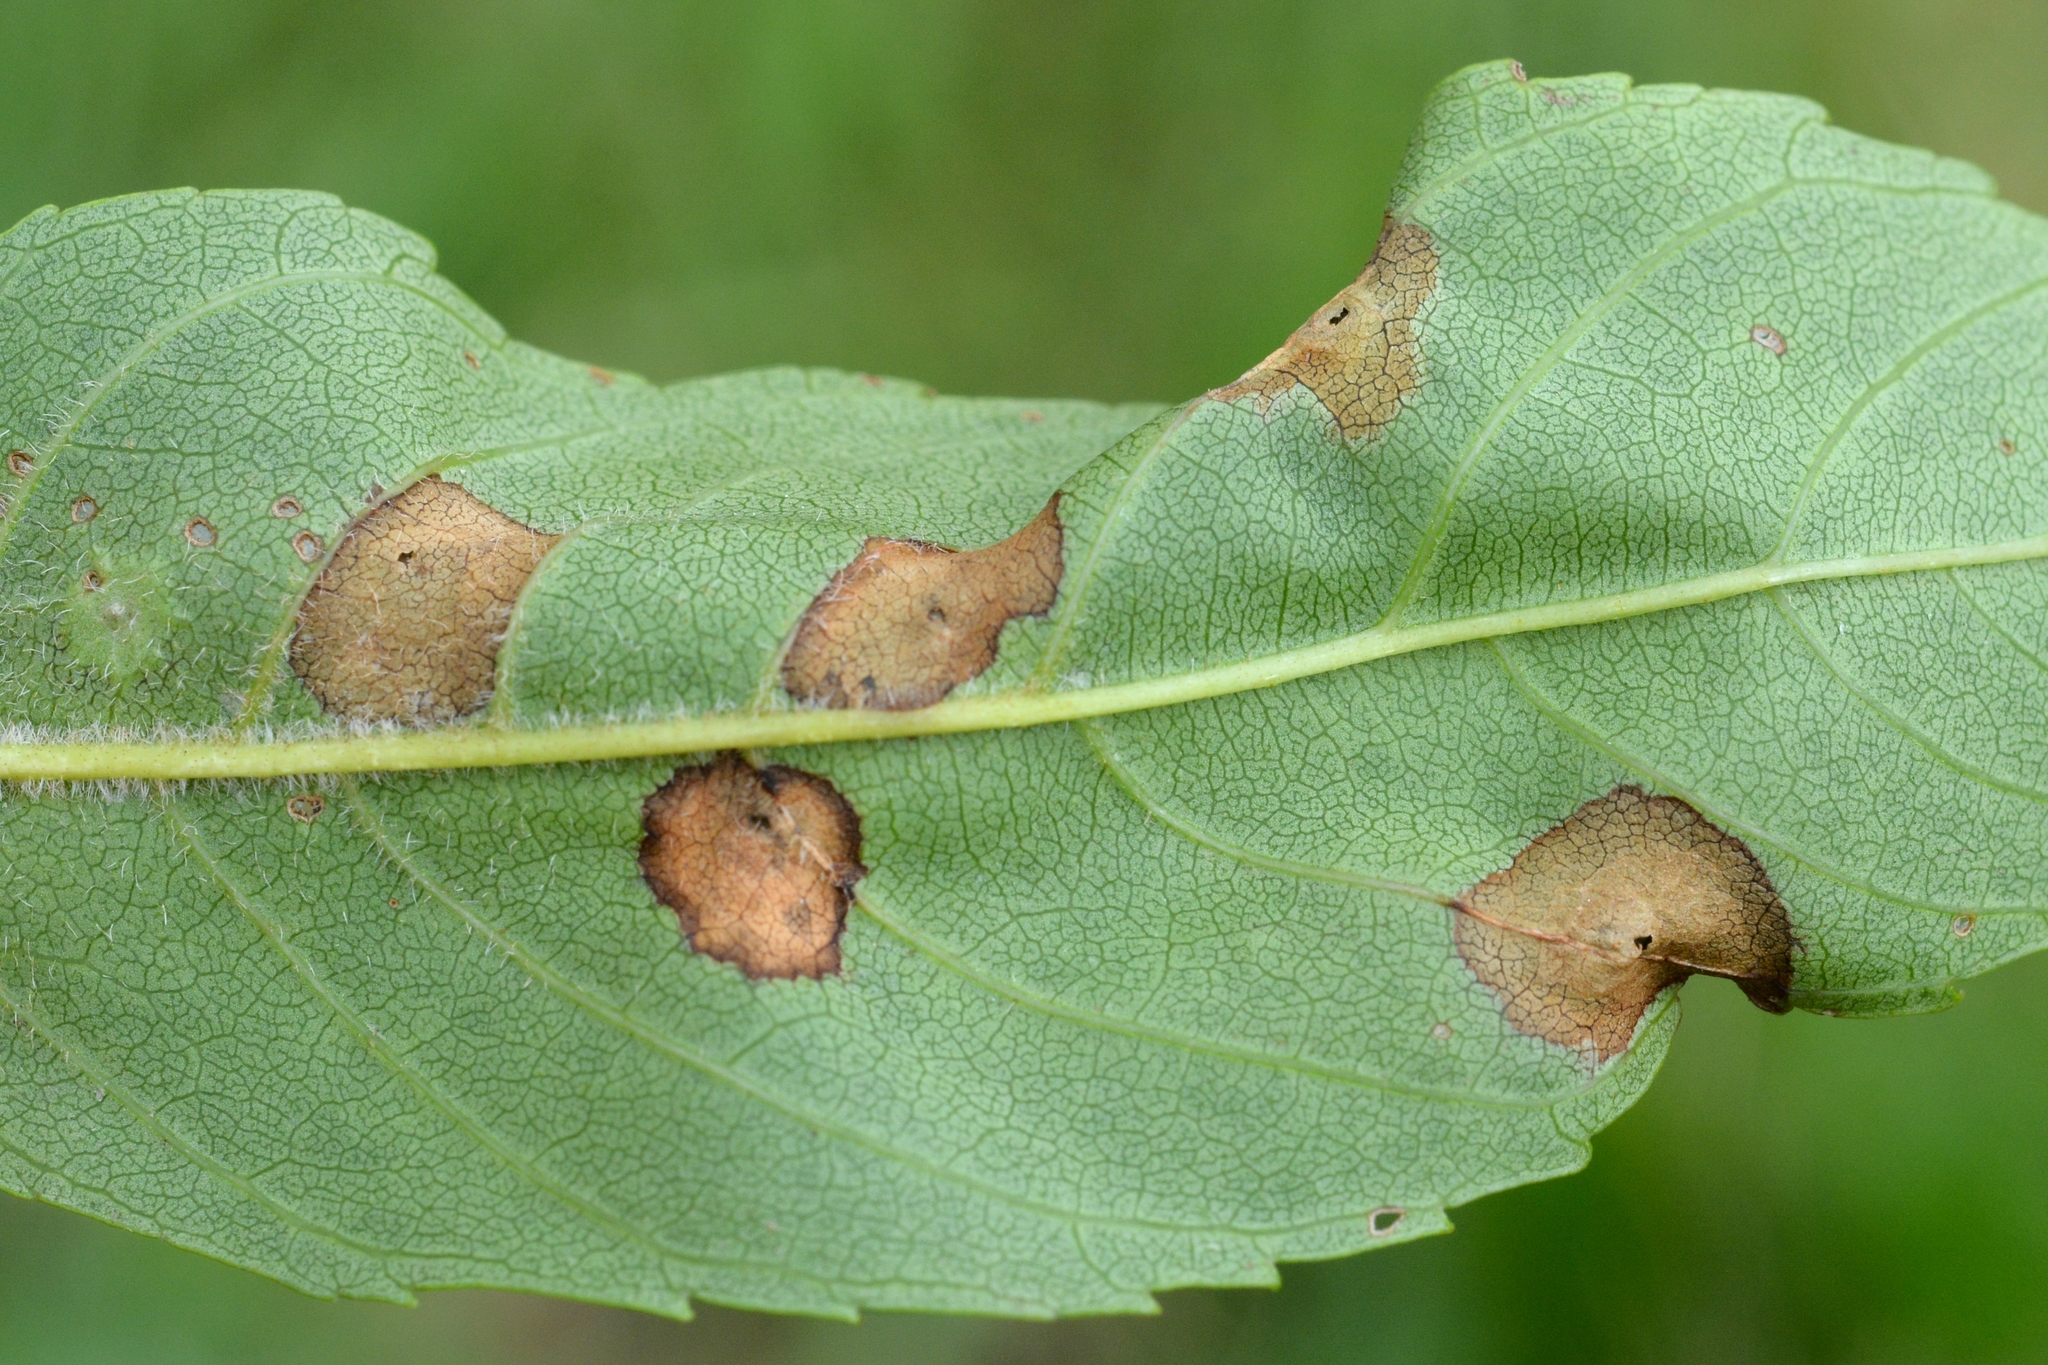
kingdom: Animalia
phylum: Arthropoda
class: Insecta
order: Diptera
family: Cecidomyiidae
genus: Dasineura
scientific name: Dasineura fraxinea
